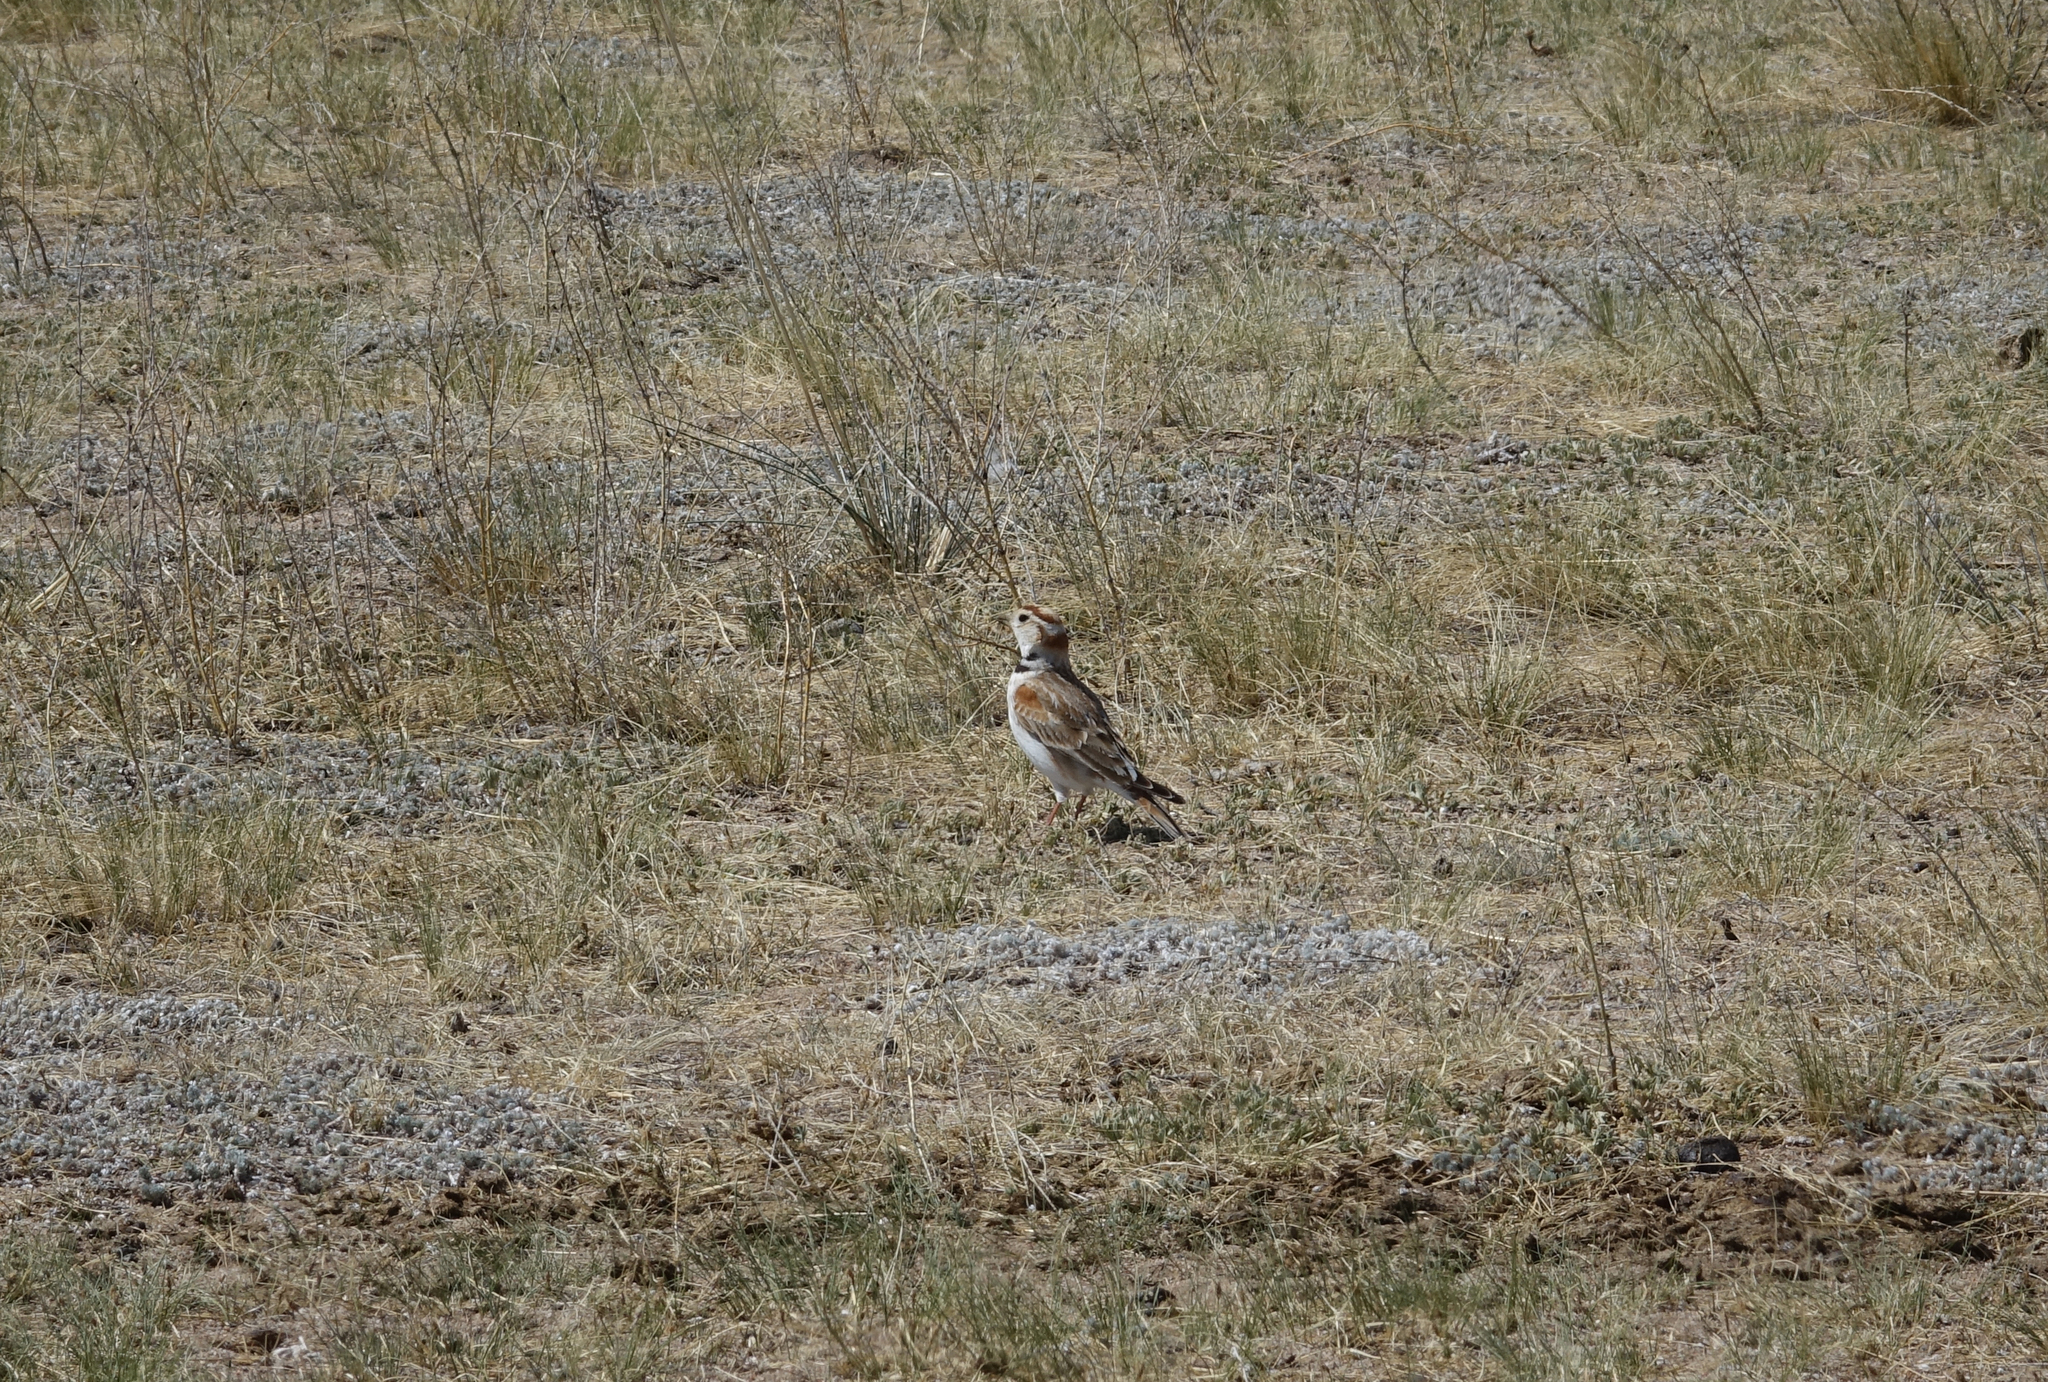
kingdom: Animalia
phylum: Chordata
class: Aves
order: Passeriformes
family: Alaudidae
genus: Melanocorypha
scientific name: Melanocorypha mongolica
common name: Mongolian lark
